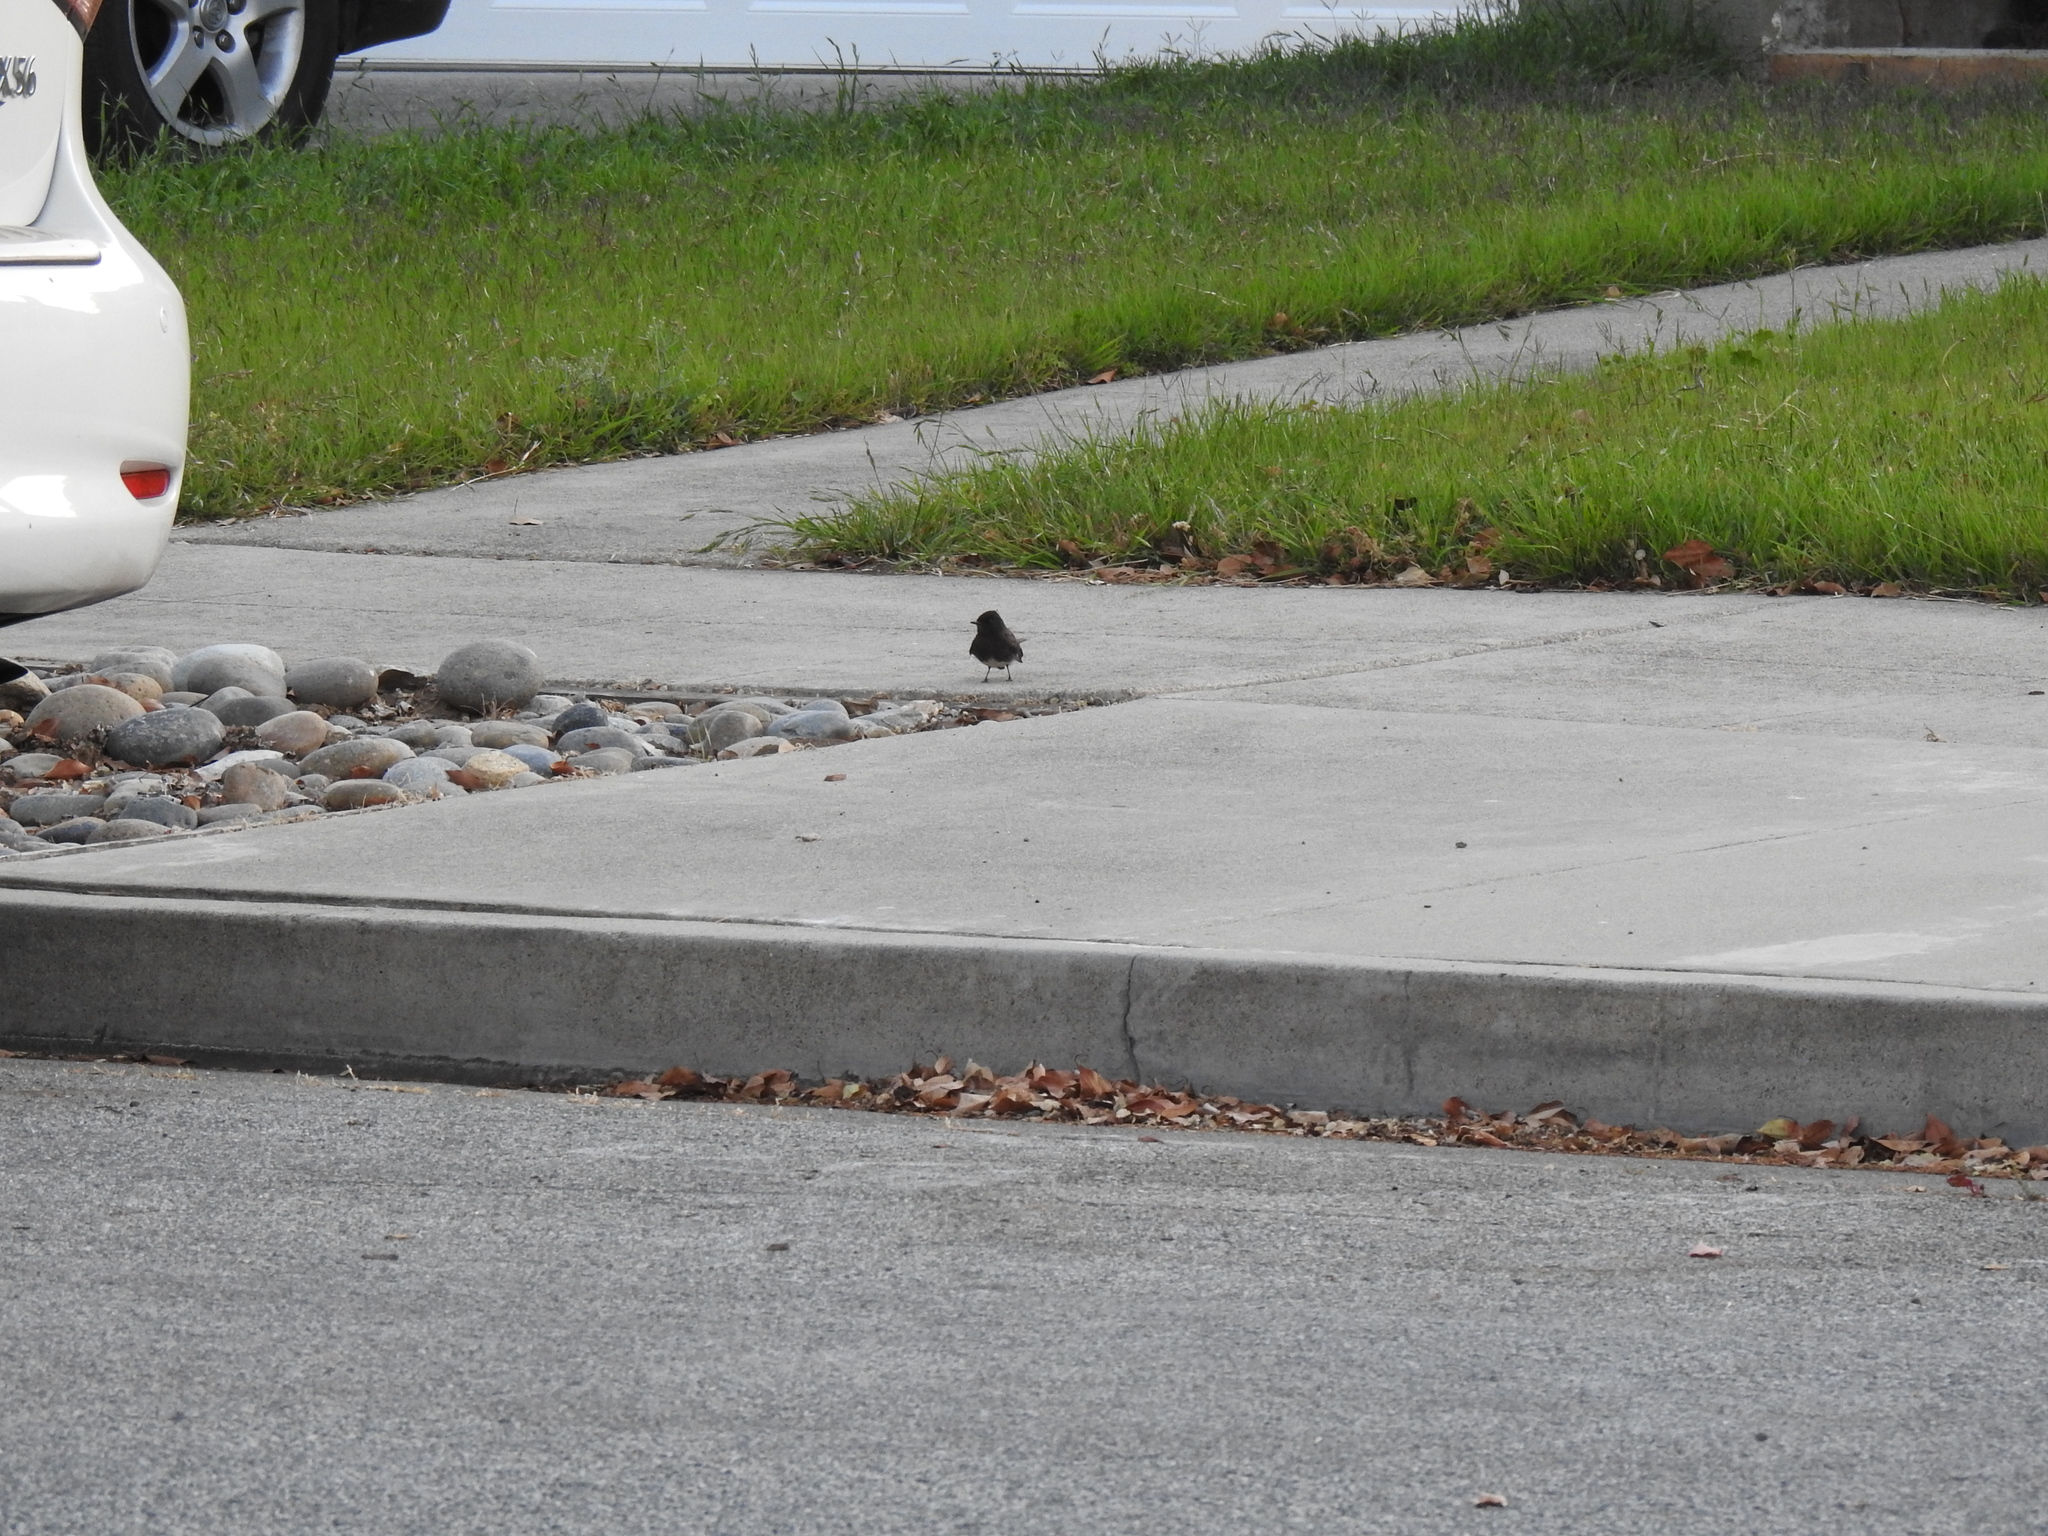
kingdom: Animalia
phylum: Chordata
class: Aves
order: Passeriformes
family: Tyrannidae
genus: Sayornis
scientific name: Sayornis nigricans
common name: Black phoebe
